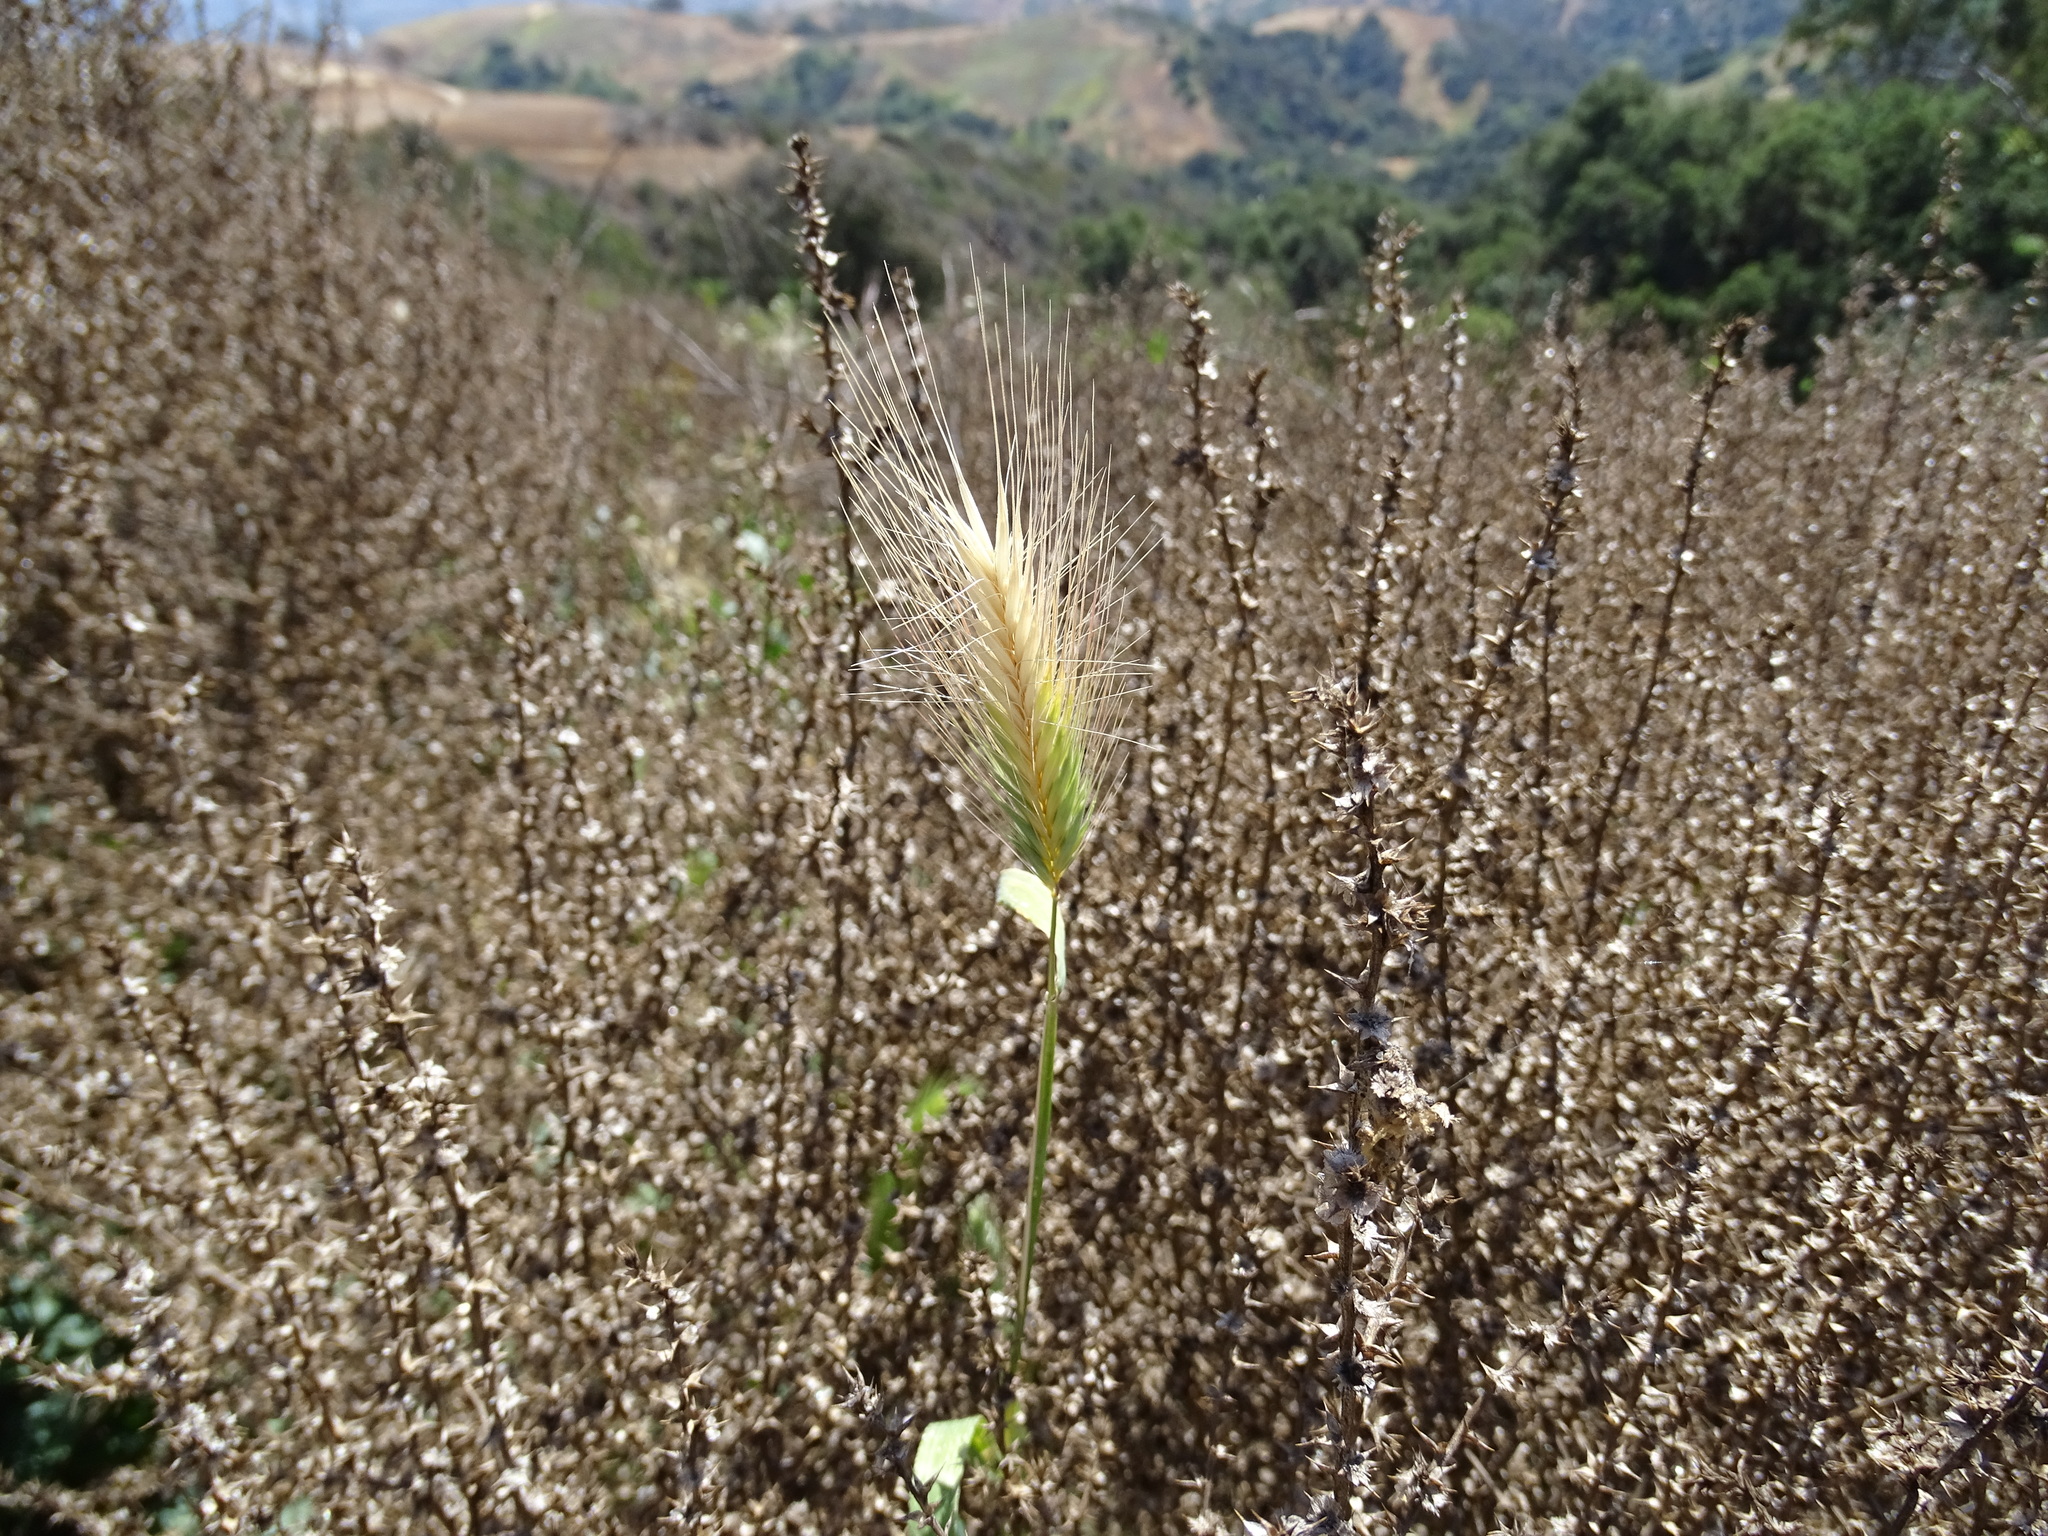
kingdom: Plantae
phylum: Tracheophyta
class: Liliopsida
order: Poales
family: Poaceae
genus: Hordeum
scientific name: Hordeum murinum
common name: Wall barley
